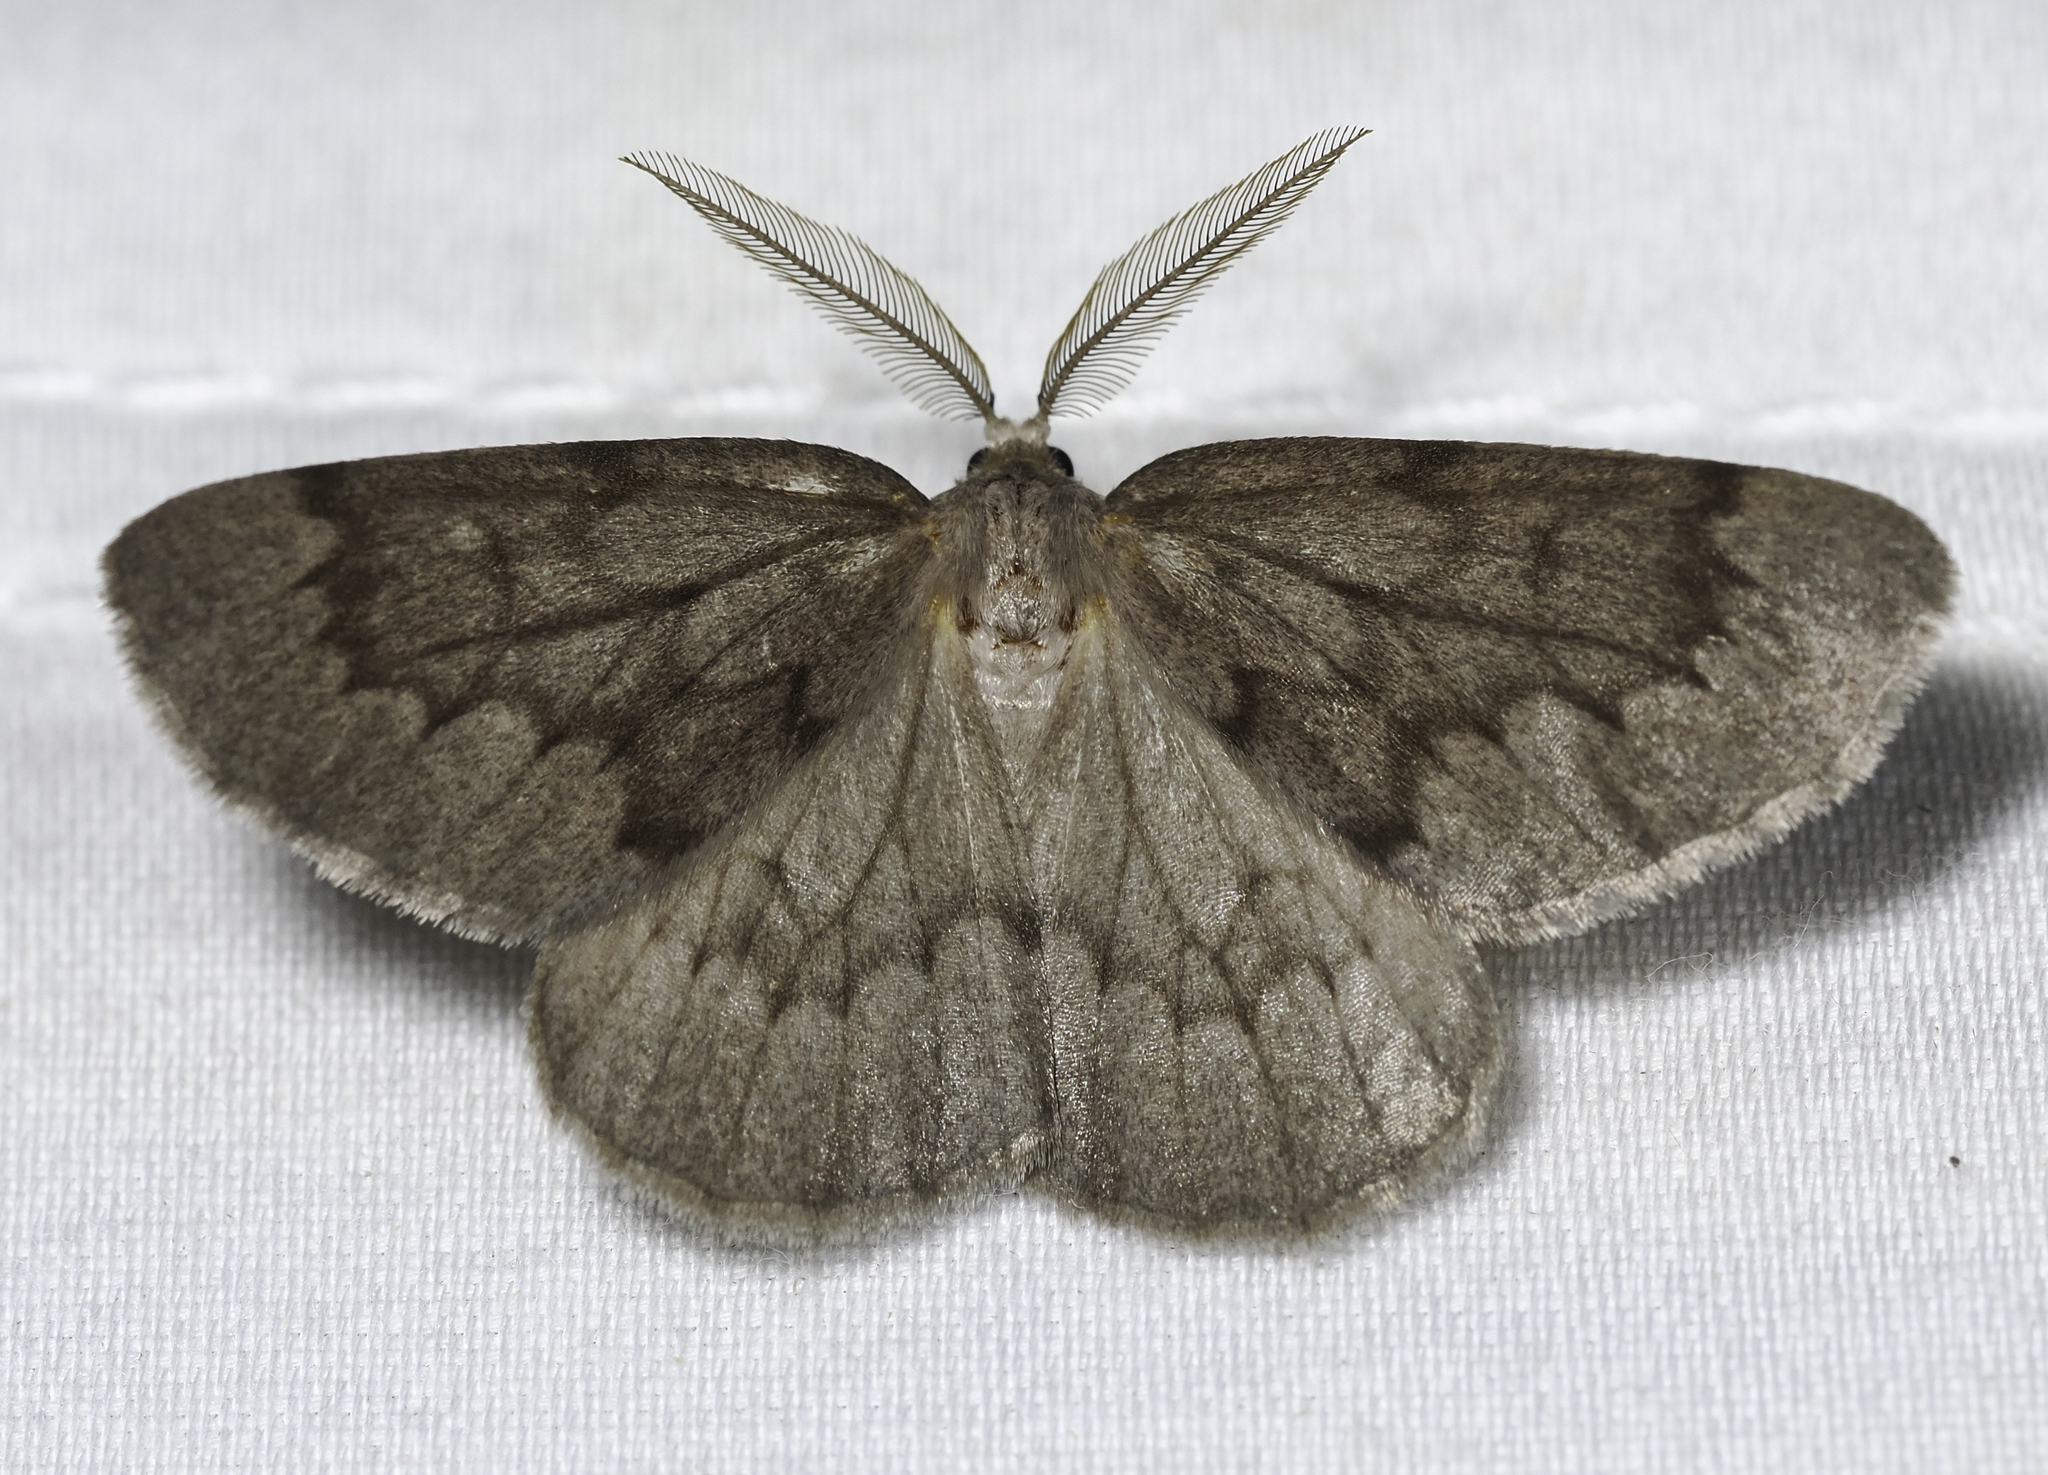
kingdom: Animalia
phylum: Arthropoda
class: Insecta
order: Lepidoptera
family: Geometridae
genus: Nepytia
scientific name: Nepytia semiclusaria
